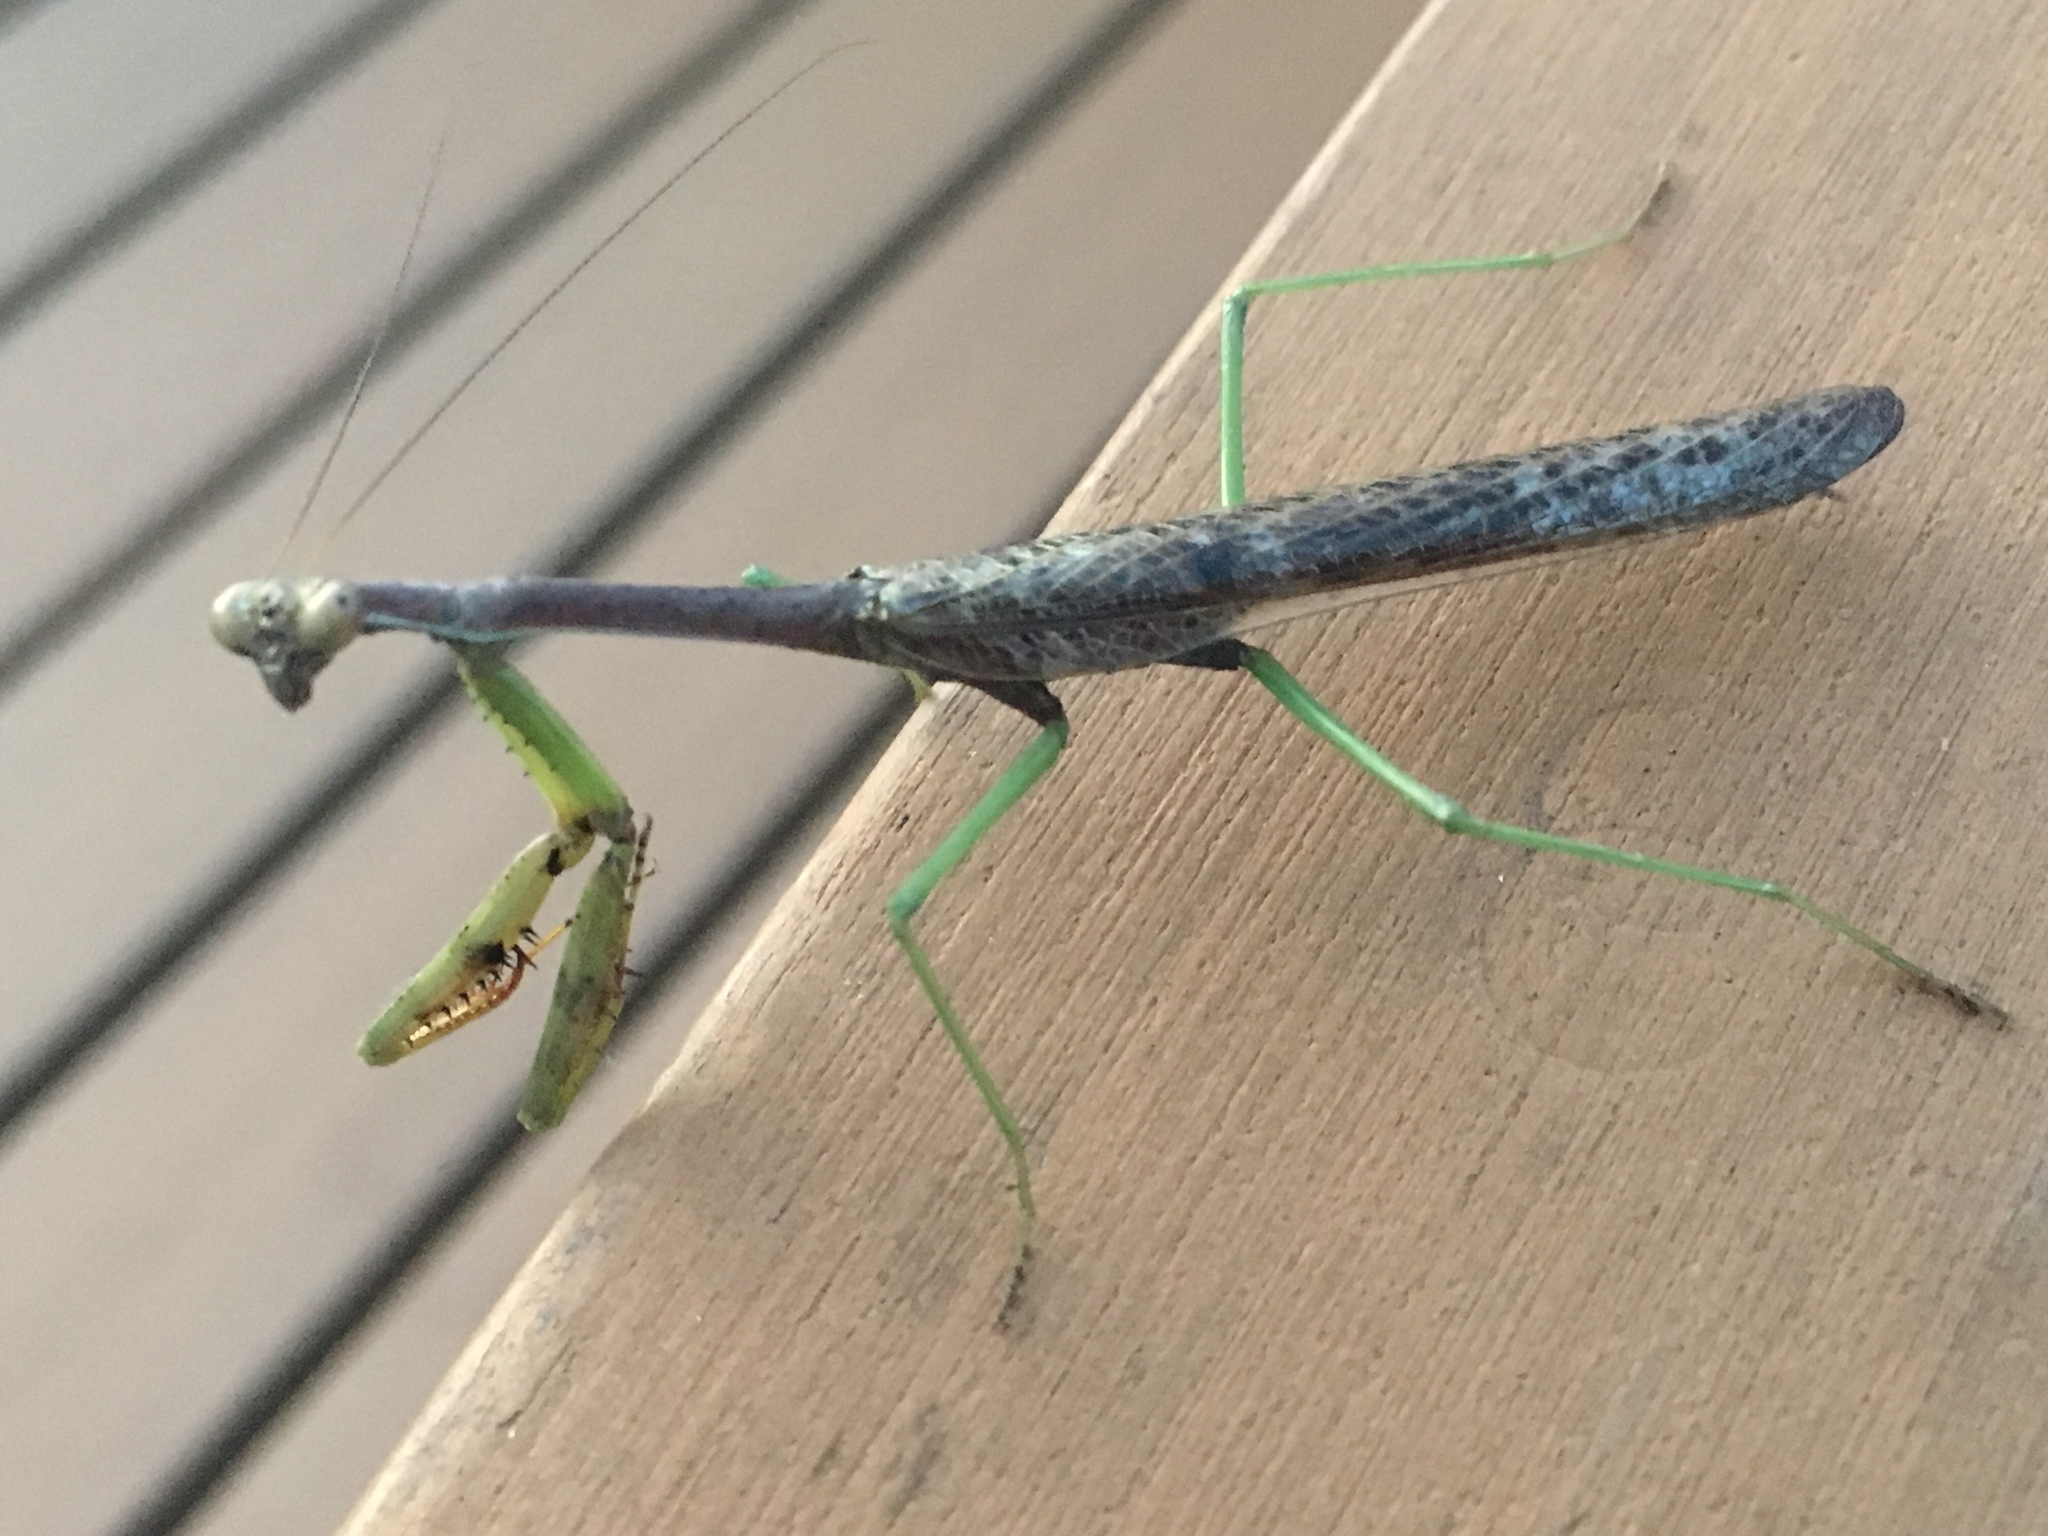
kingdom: Animalia
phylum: Arthropoda
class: Insecta
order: Mantodea
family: Mantidae
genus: Stagmomantis
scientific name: Stagmomantis carolina
